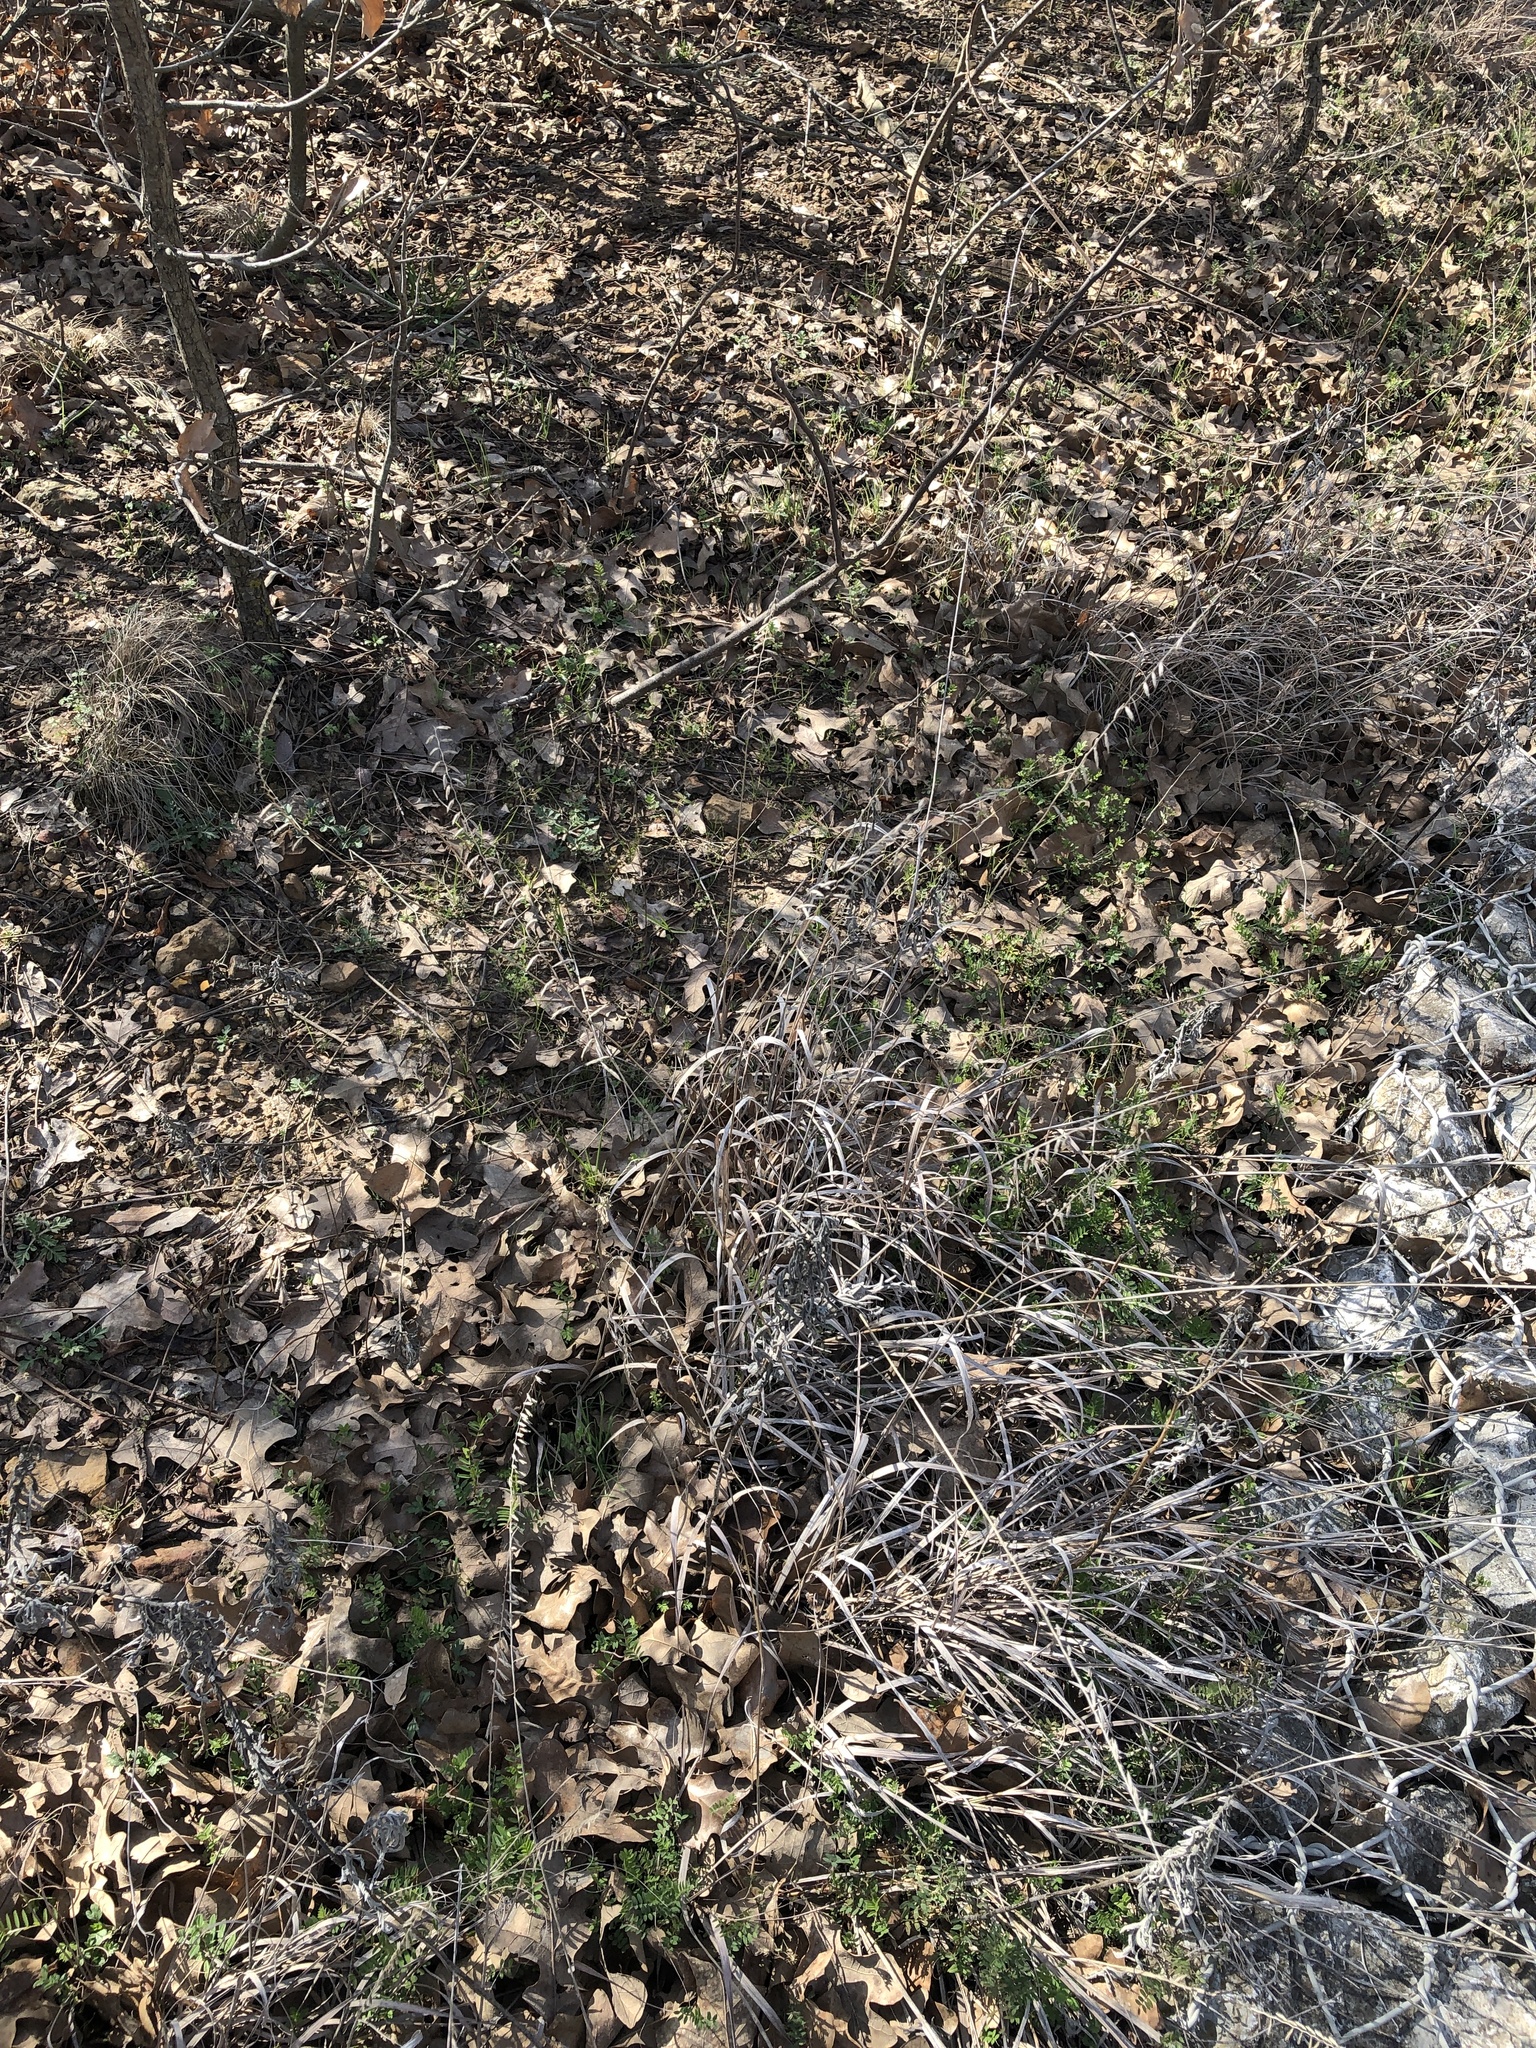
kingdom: Plantae
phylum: Tracheophyta
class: Liliopsida
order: Poales
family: Poaceae
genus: Bouteloua
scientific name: Bouteloua curtipendula
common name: Side-oats grama
